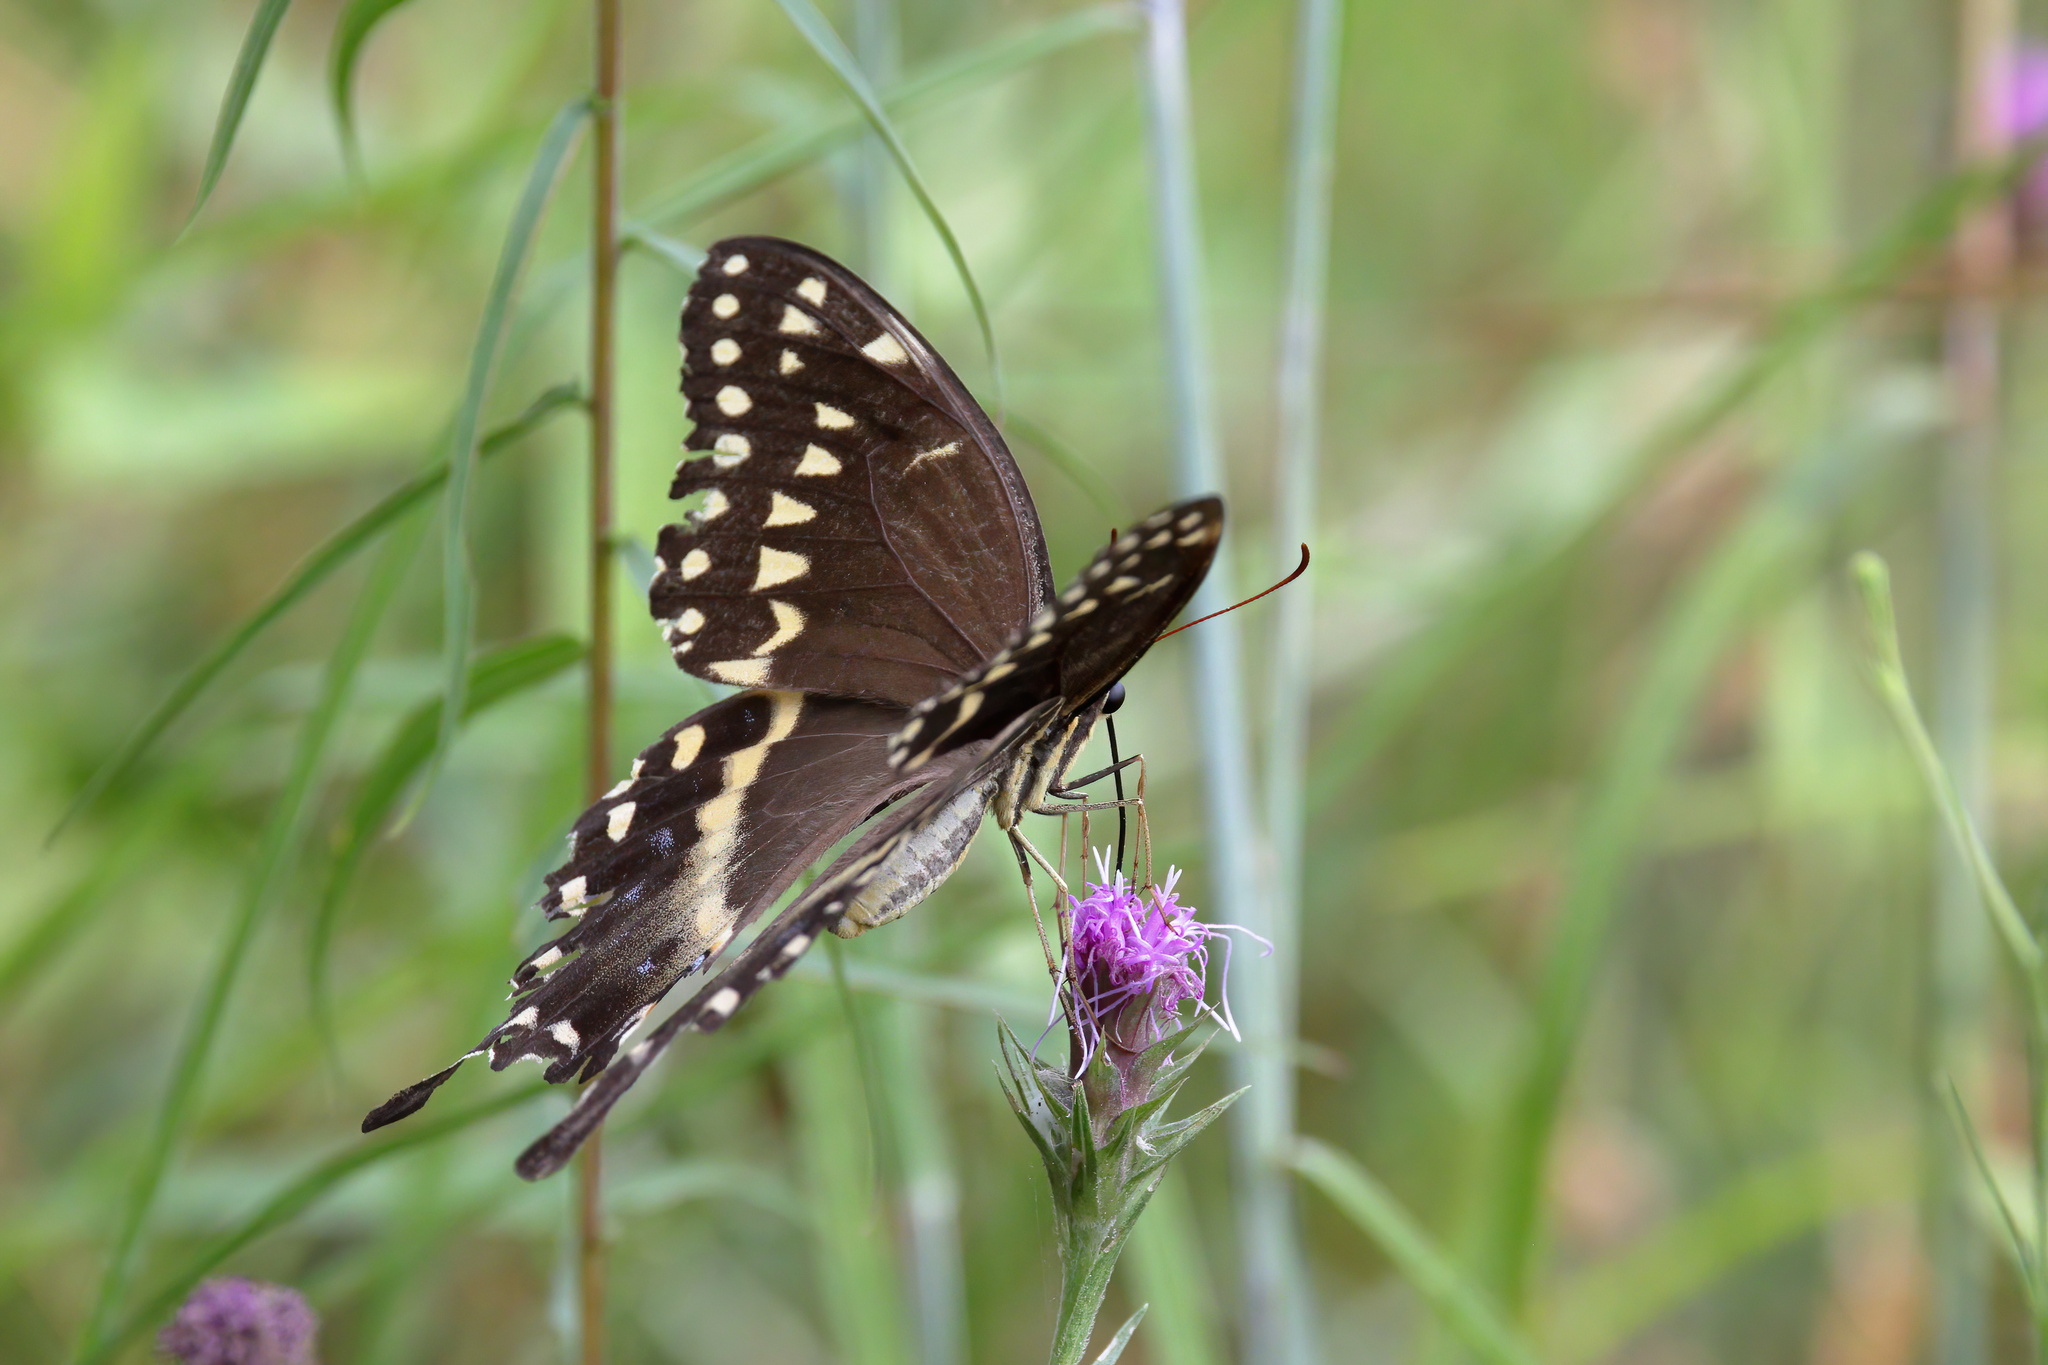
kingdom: Animalia
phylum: Arthropoda
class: Insecta
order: Lepidoptera
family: Papilionidae
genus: Papilio
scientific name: Papilio palamedes
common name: Palamedes swallowtail
